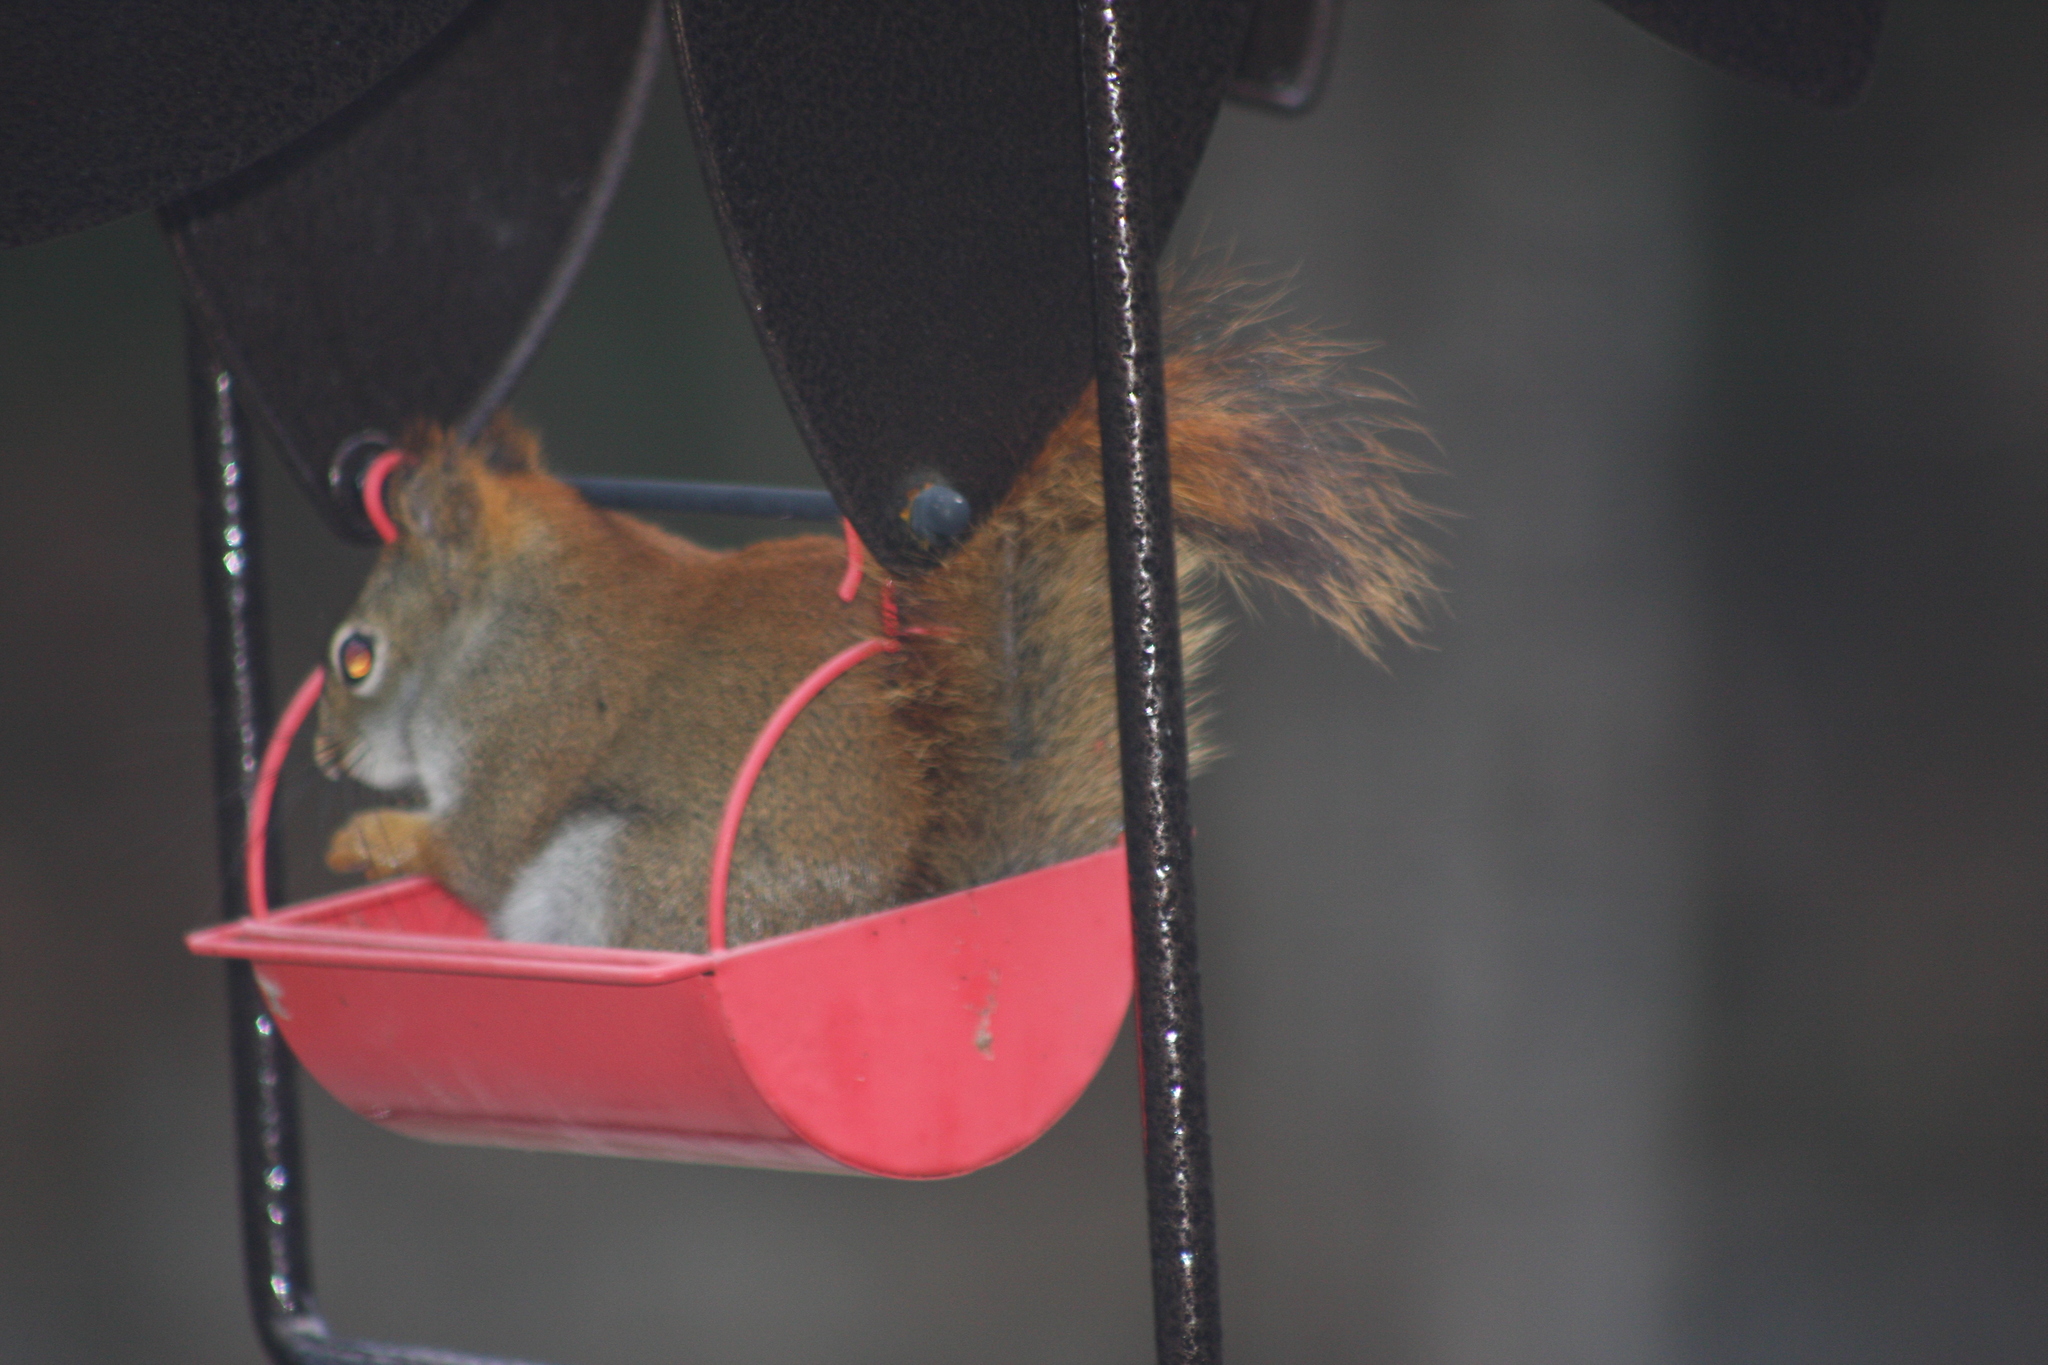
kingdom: Animalia
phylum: Chordata
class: Mammalia
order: Rodentia
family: Sciuridae
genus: Tamiasciurus
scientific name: Tamiasciurus hudsonicus
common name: Red squirrel
